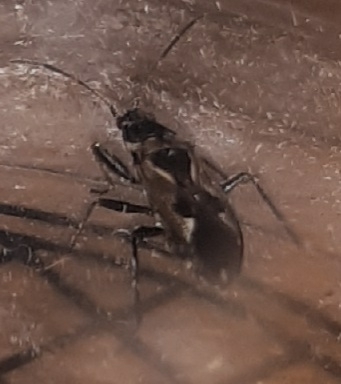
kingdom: Animalia
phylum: Arthropoda
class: Insecta
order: Hemiptera
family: Rhyparochromidae
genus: Rhyparochromus
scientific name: Rhyparochromus vulgaris
